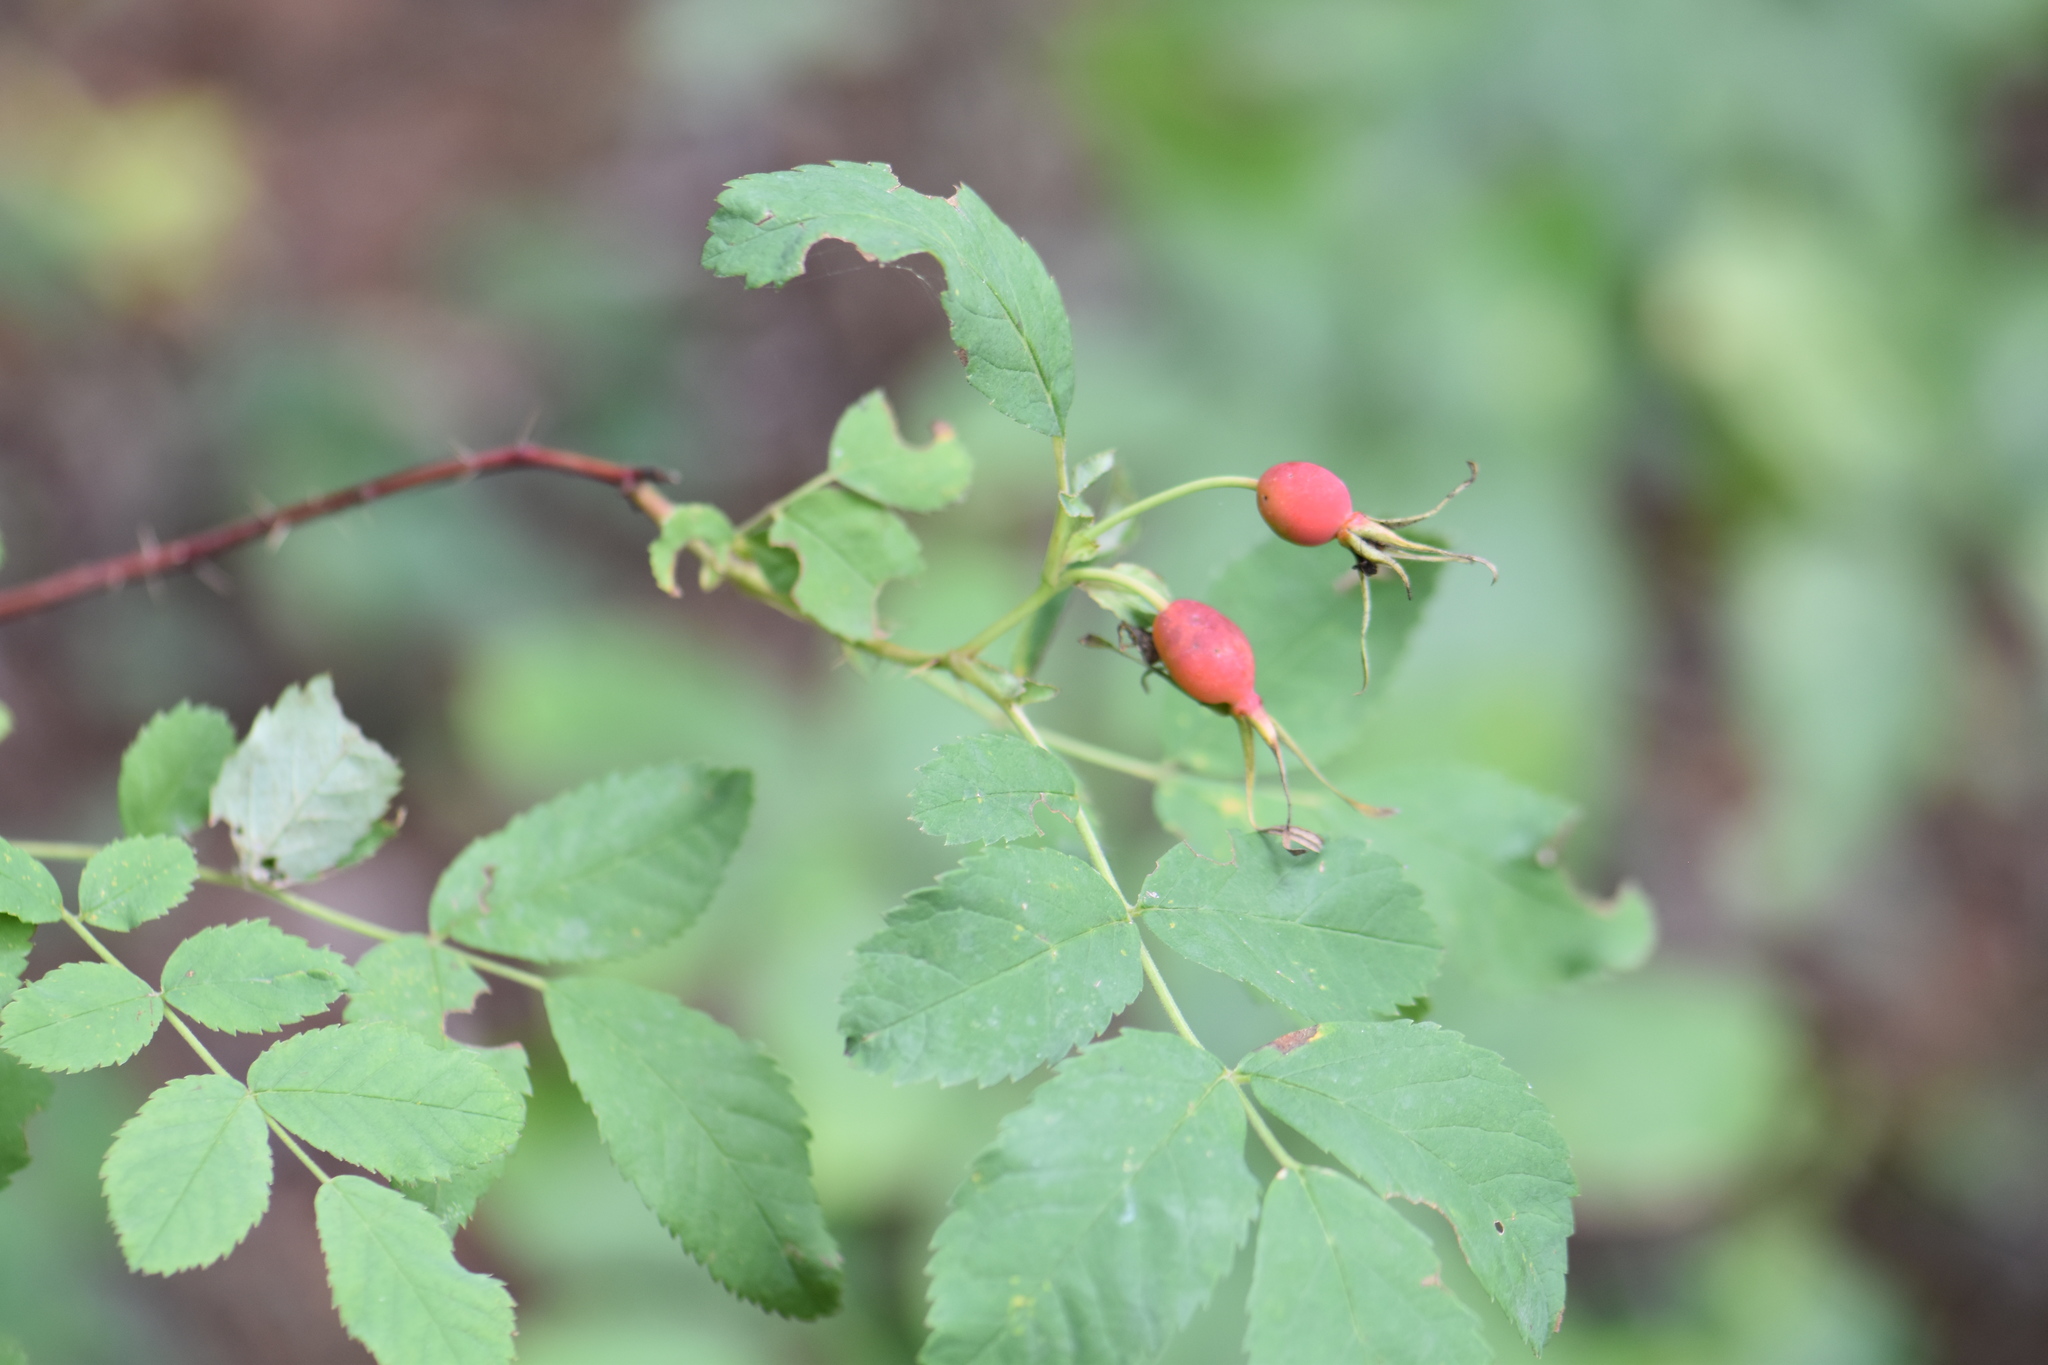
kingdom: Plantae
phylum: Tracheophyta
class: Magnoliopsida
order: Rosales
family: Rosaceae
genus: Rosa
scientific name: Rosa acicularis
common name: Prickly rose
